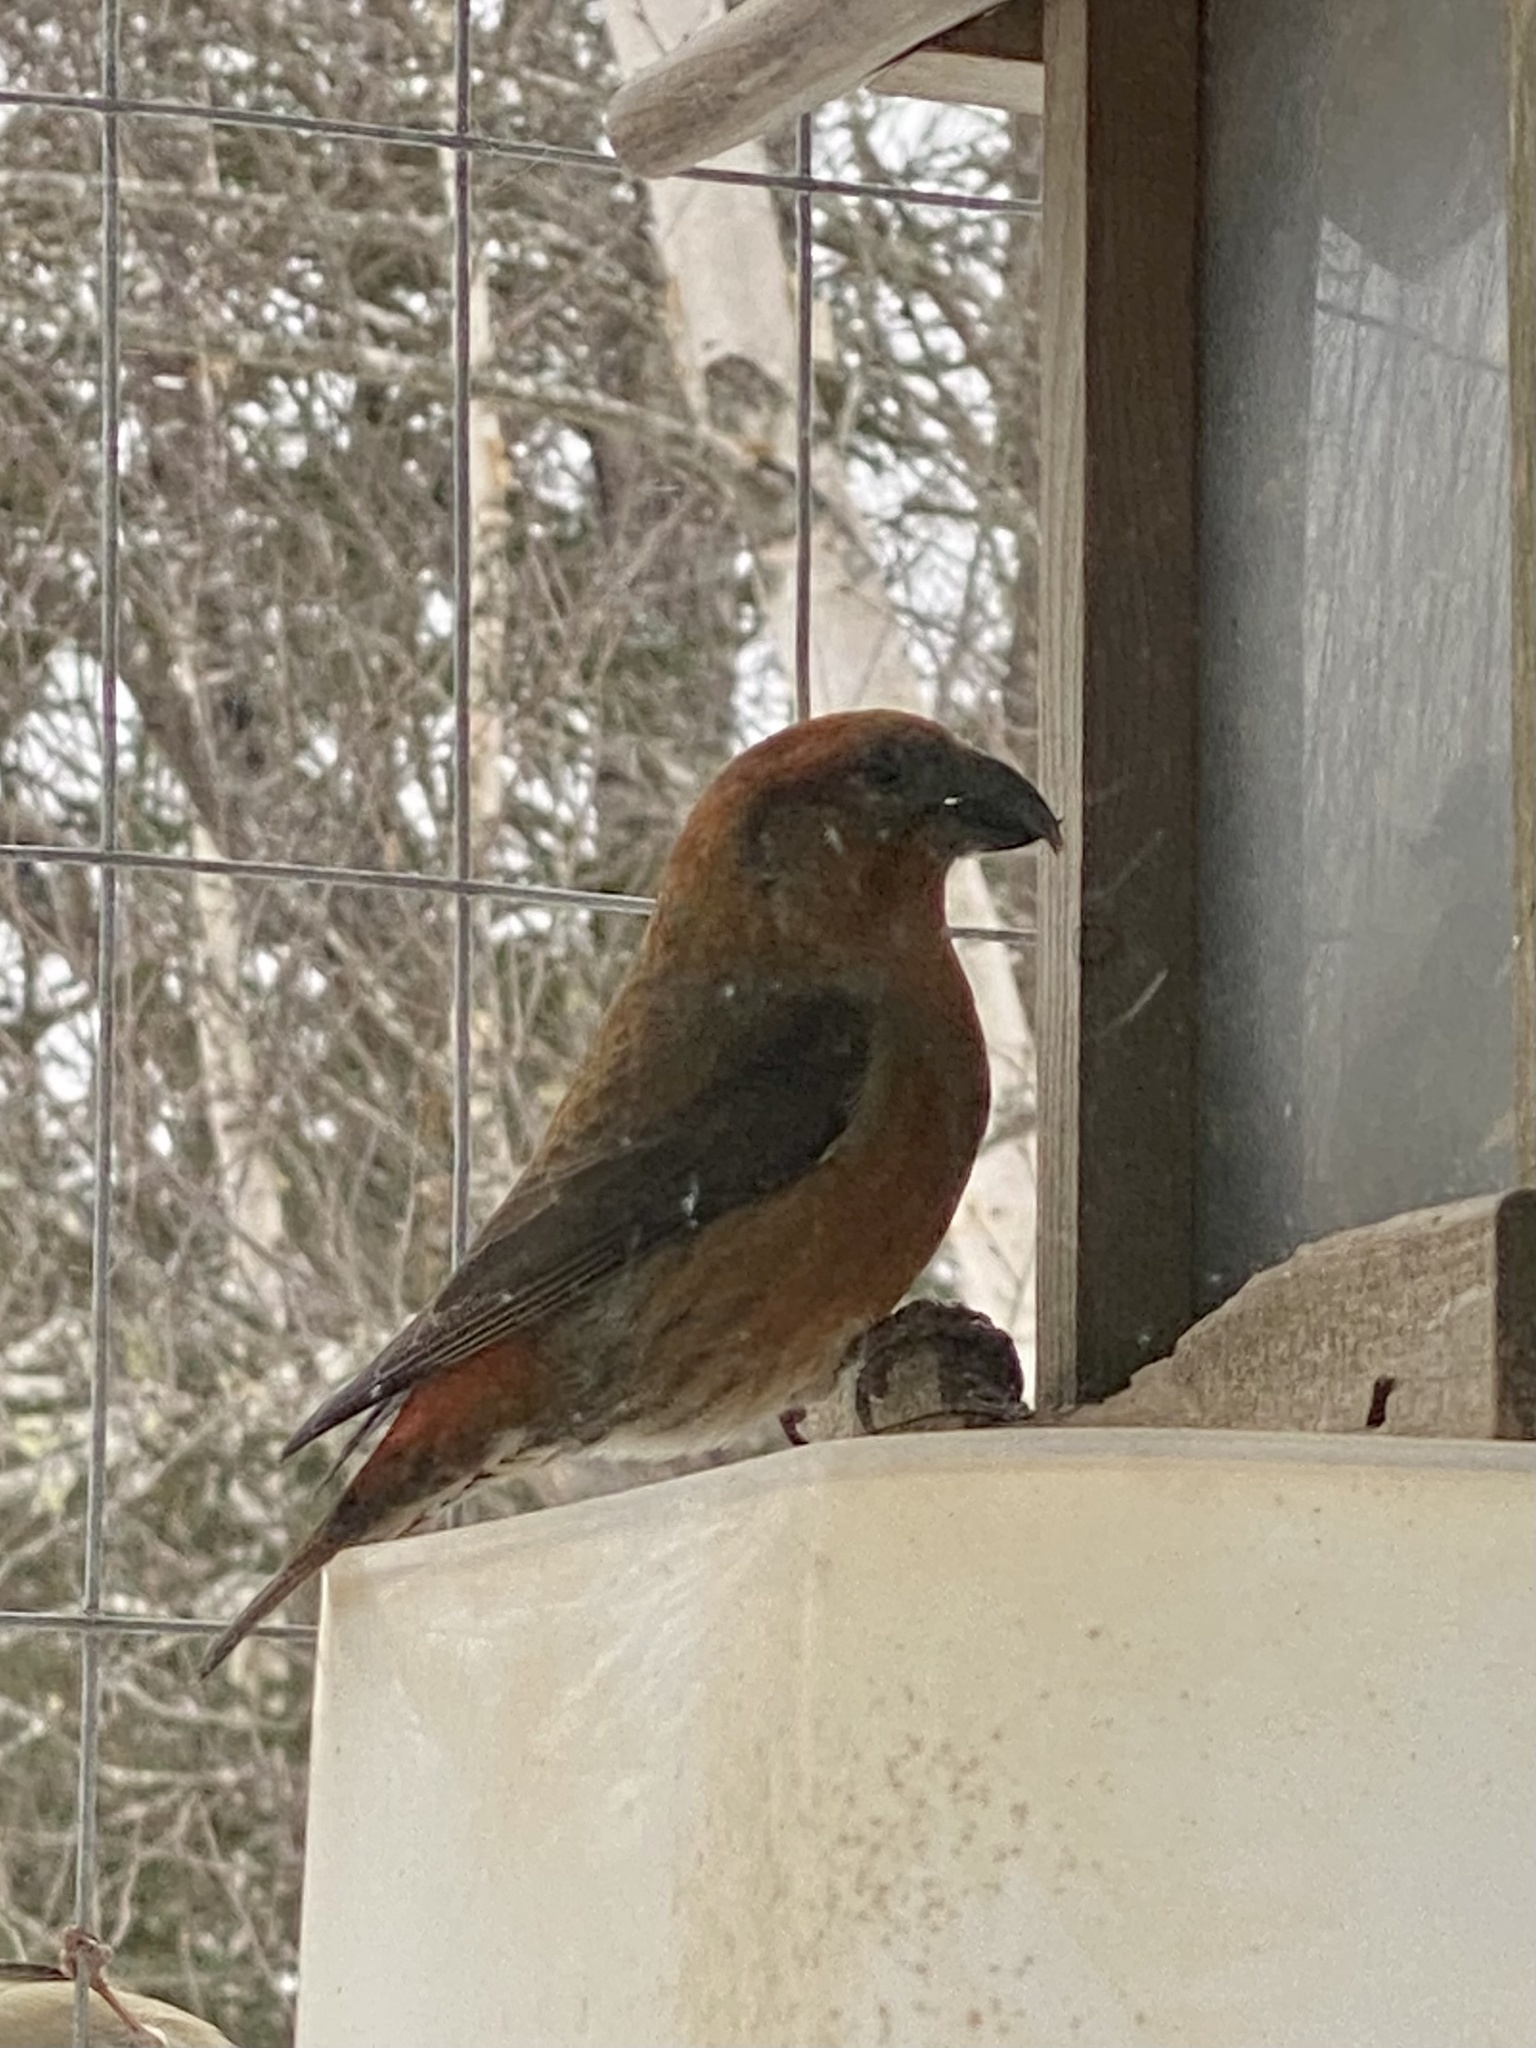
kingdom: Animalia
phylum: Chordata
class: Aves
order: Passeriformes
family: Fringillidae
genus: Loxia
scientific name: Loxia curvirostra
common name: Red crossbill
